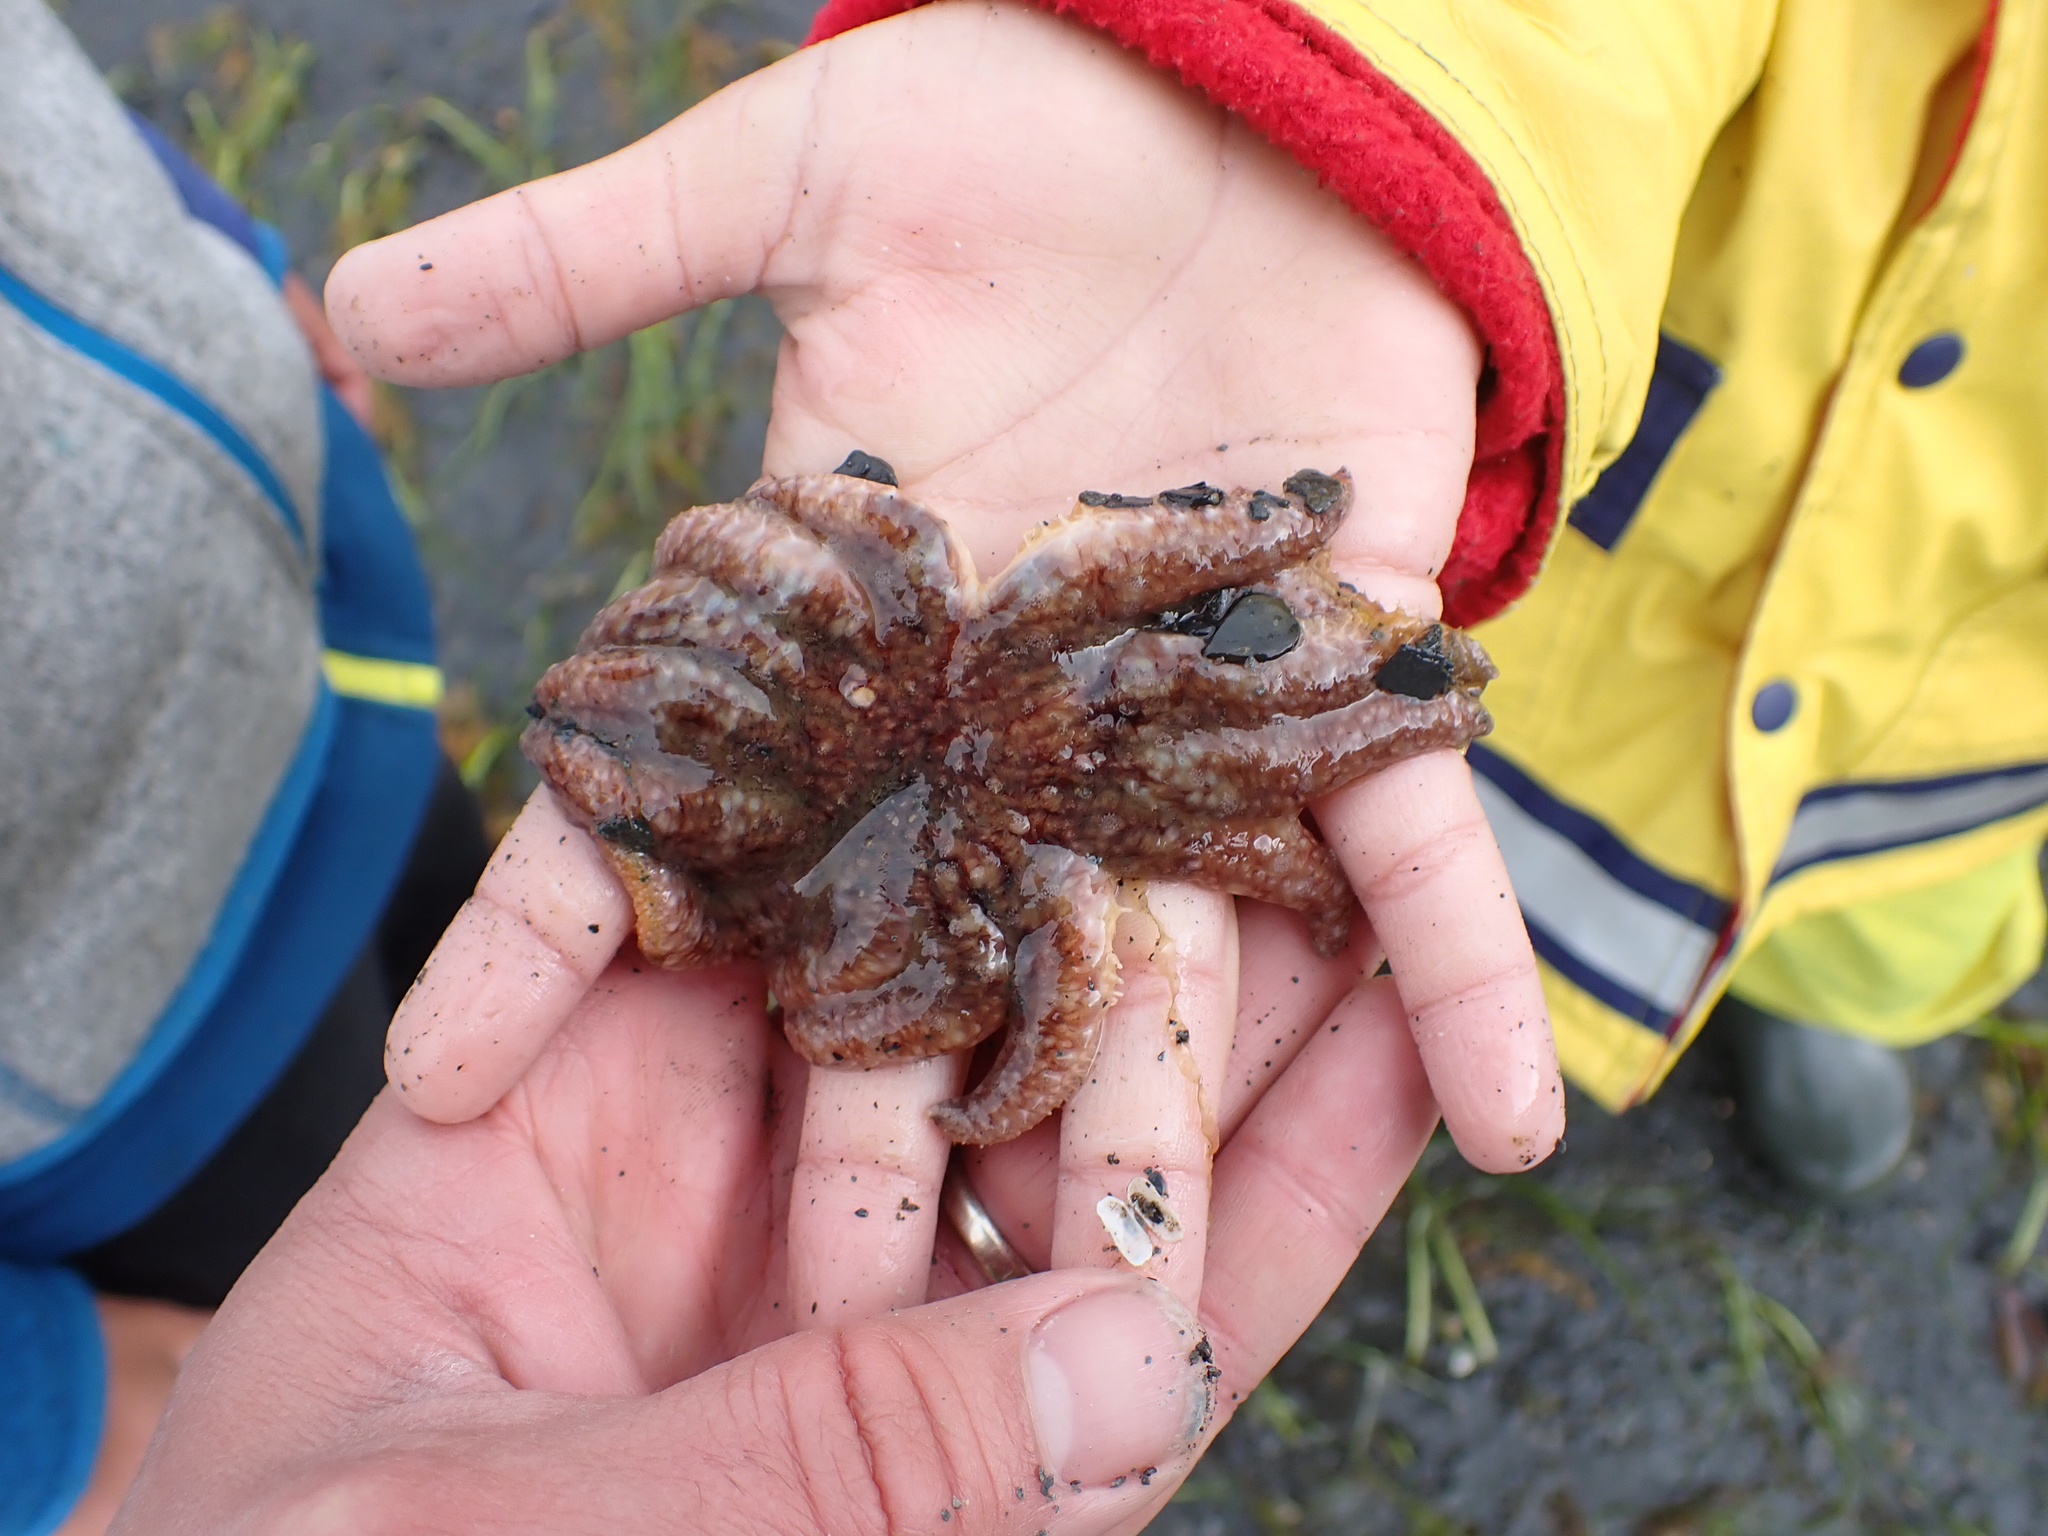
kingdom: Animalia
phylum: Echinodermata
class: Asteroidea
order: Forcipulatida
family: Asteriidae
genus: Pycnopodia
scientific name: Pycnopodia helianthoides
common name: Rag mop
